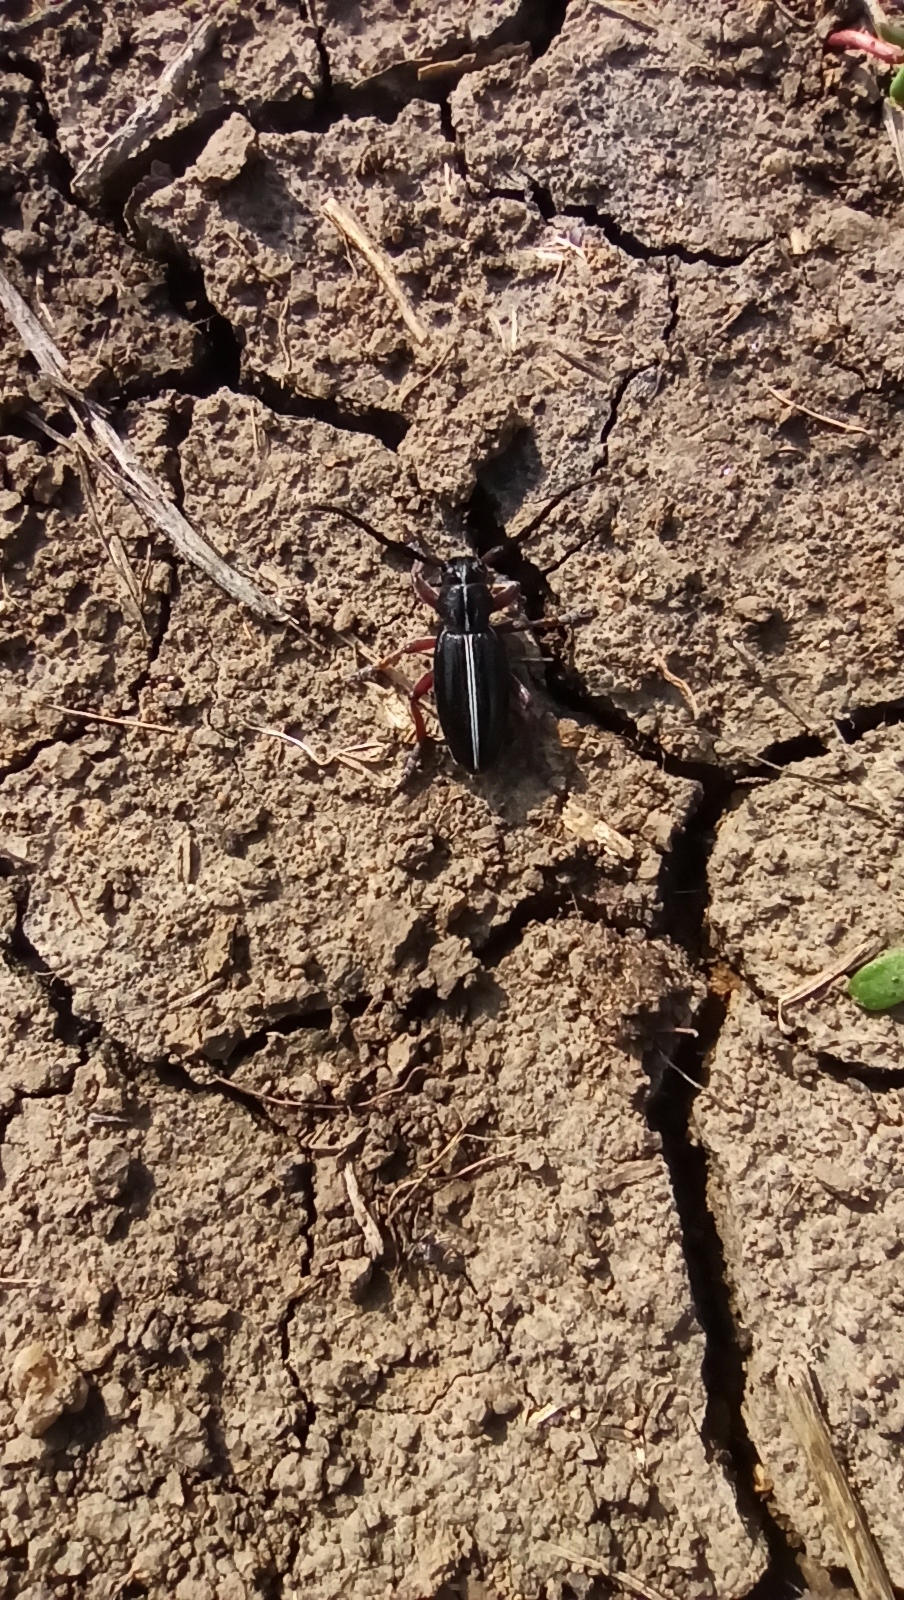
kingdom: Animalia
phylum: Arthropoda
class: Insecta
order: Coleoptera
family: Cerambycidae
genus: Dorcadion
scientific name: Dorcadion cinerarium
